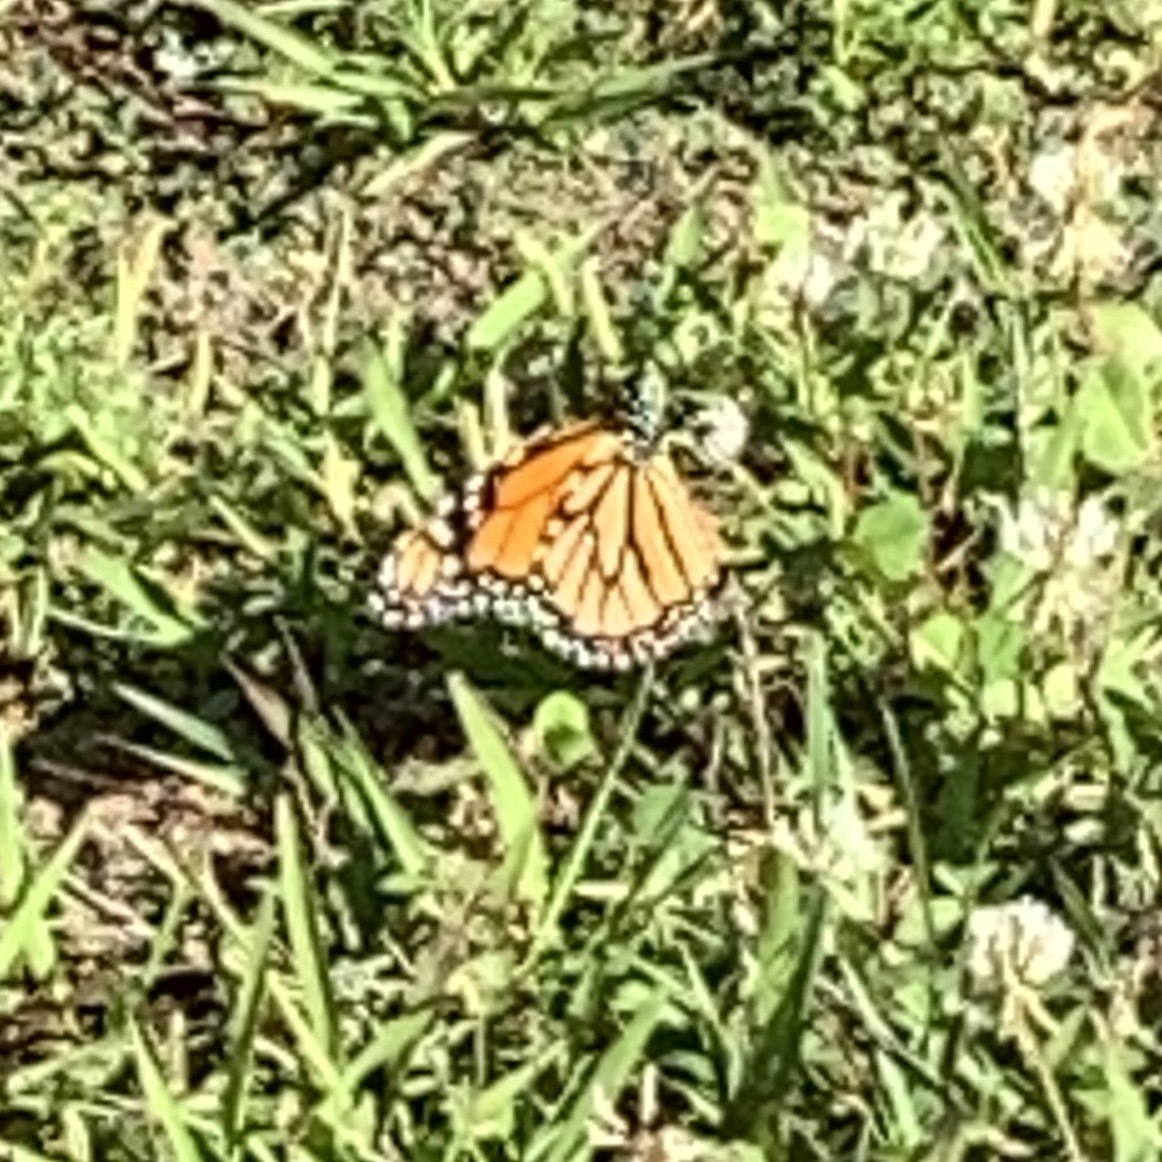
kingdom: Animalia
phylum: Arthropoda
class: Insecta
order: Lepidoptera
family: Nymphalidae
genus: Danaus
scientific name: Danaus plexippus
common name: Monarch
